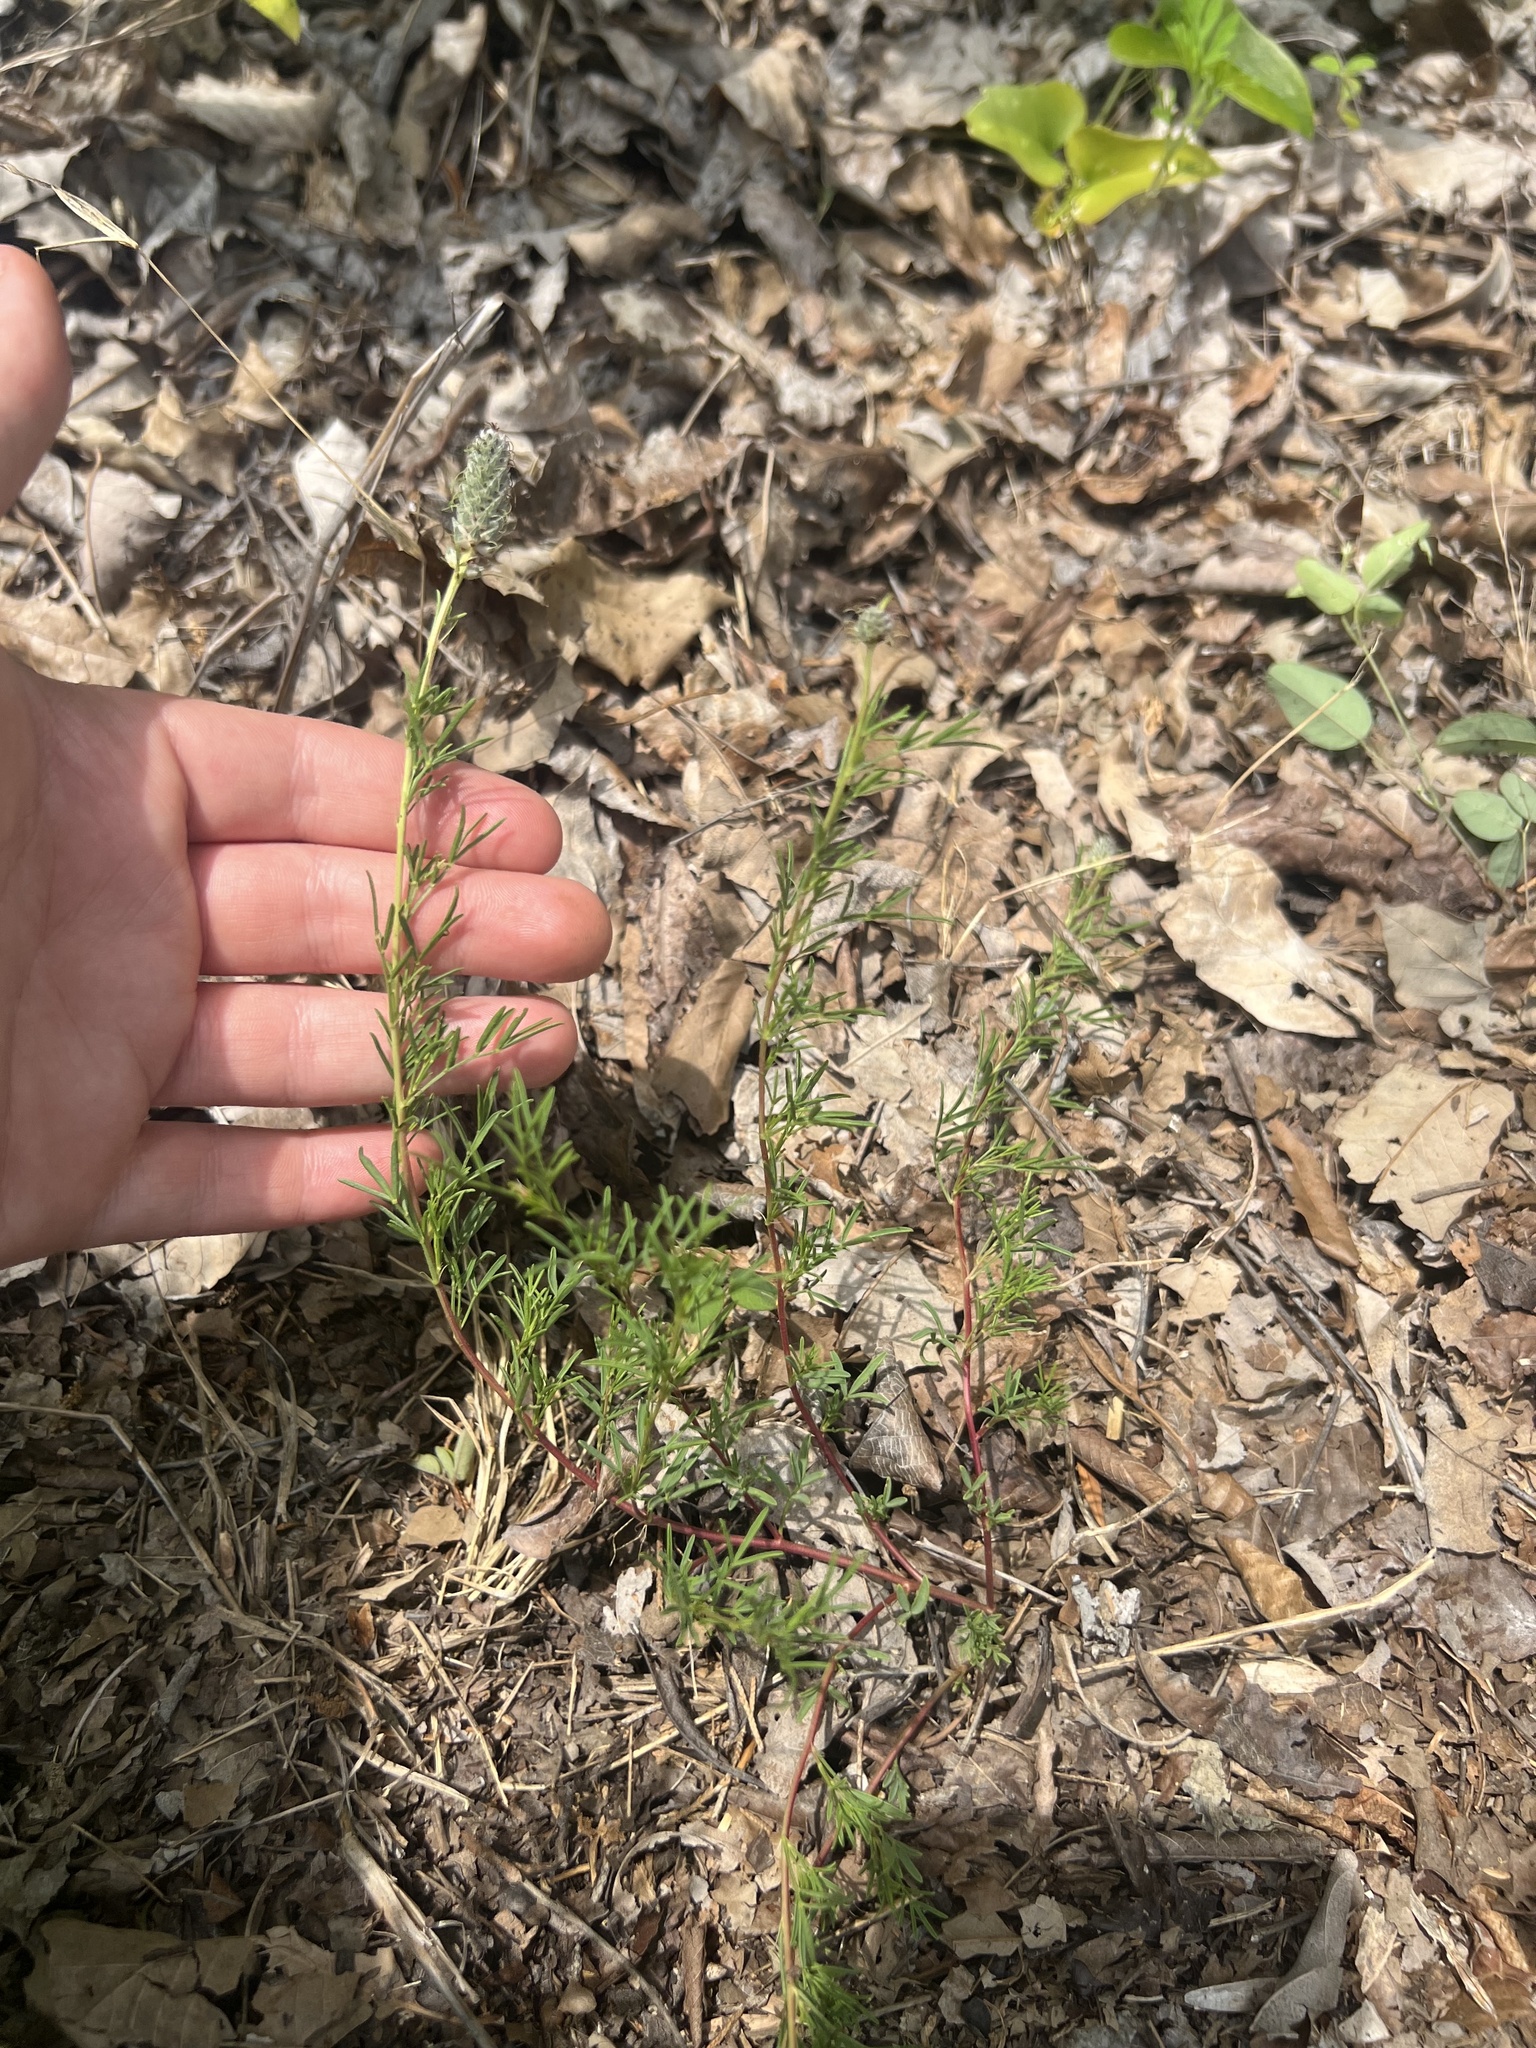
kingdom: Plantae
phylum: Tracheophyta
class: Magnoliopsida
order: Fabales
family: Fabaceae
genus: Dalea
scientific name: Dalea gattingeri
